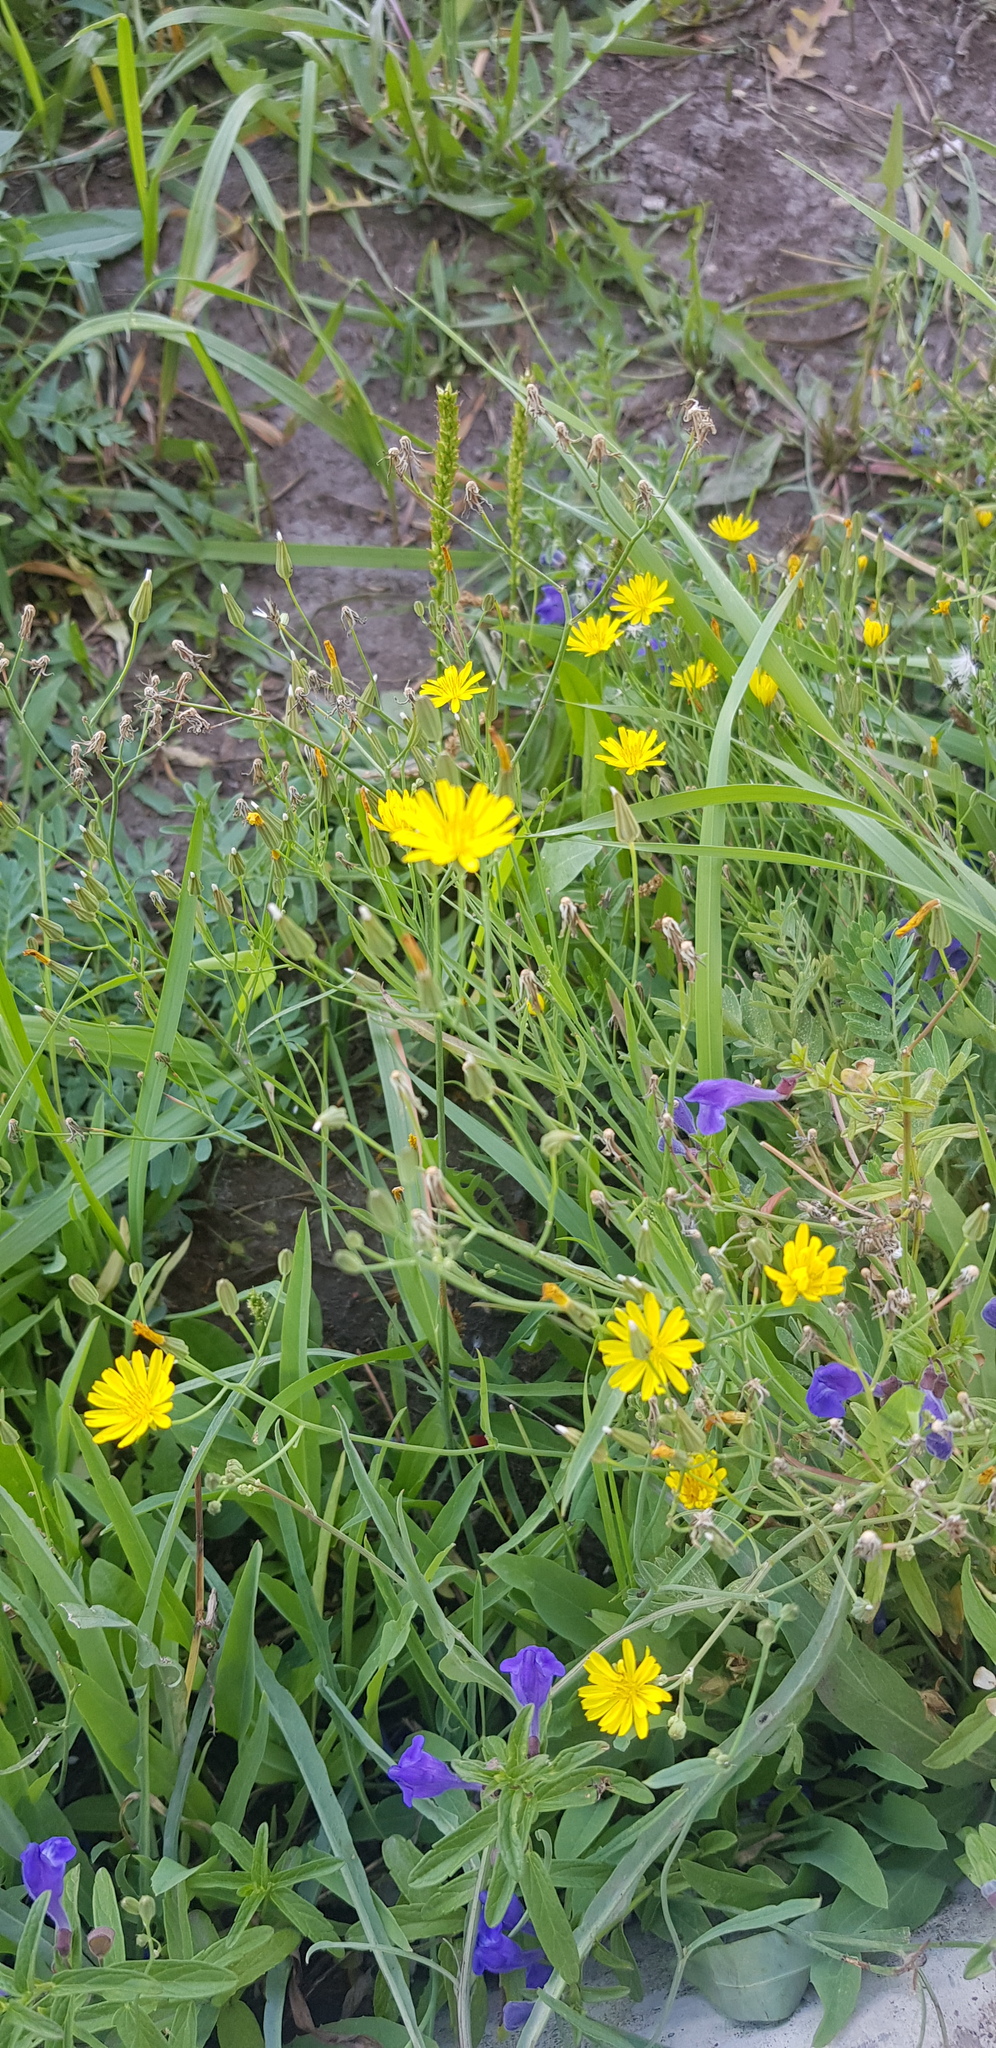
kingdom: Plantae
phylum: Tracheophyta
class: Magnoliopsida
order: Asterales
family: Asteraceae
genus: Crepidiastrum
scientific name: Crepidiastrum tenuifolium
